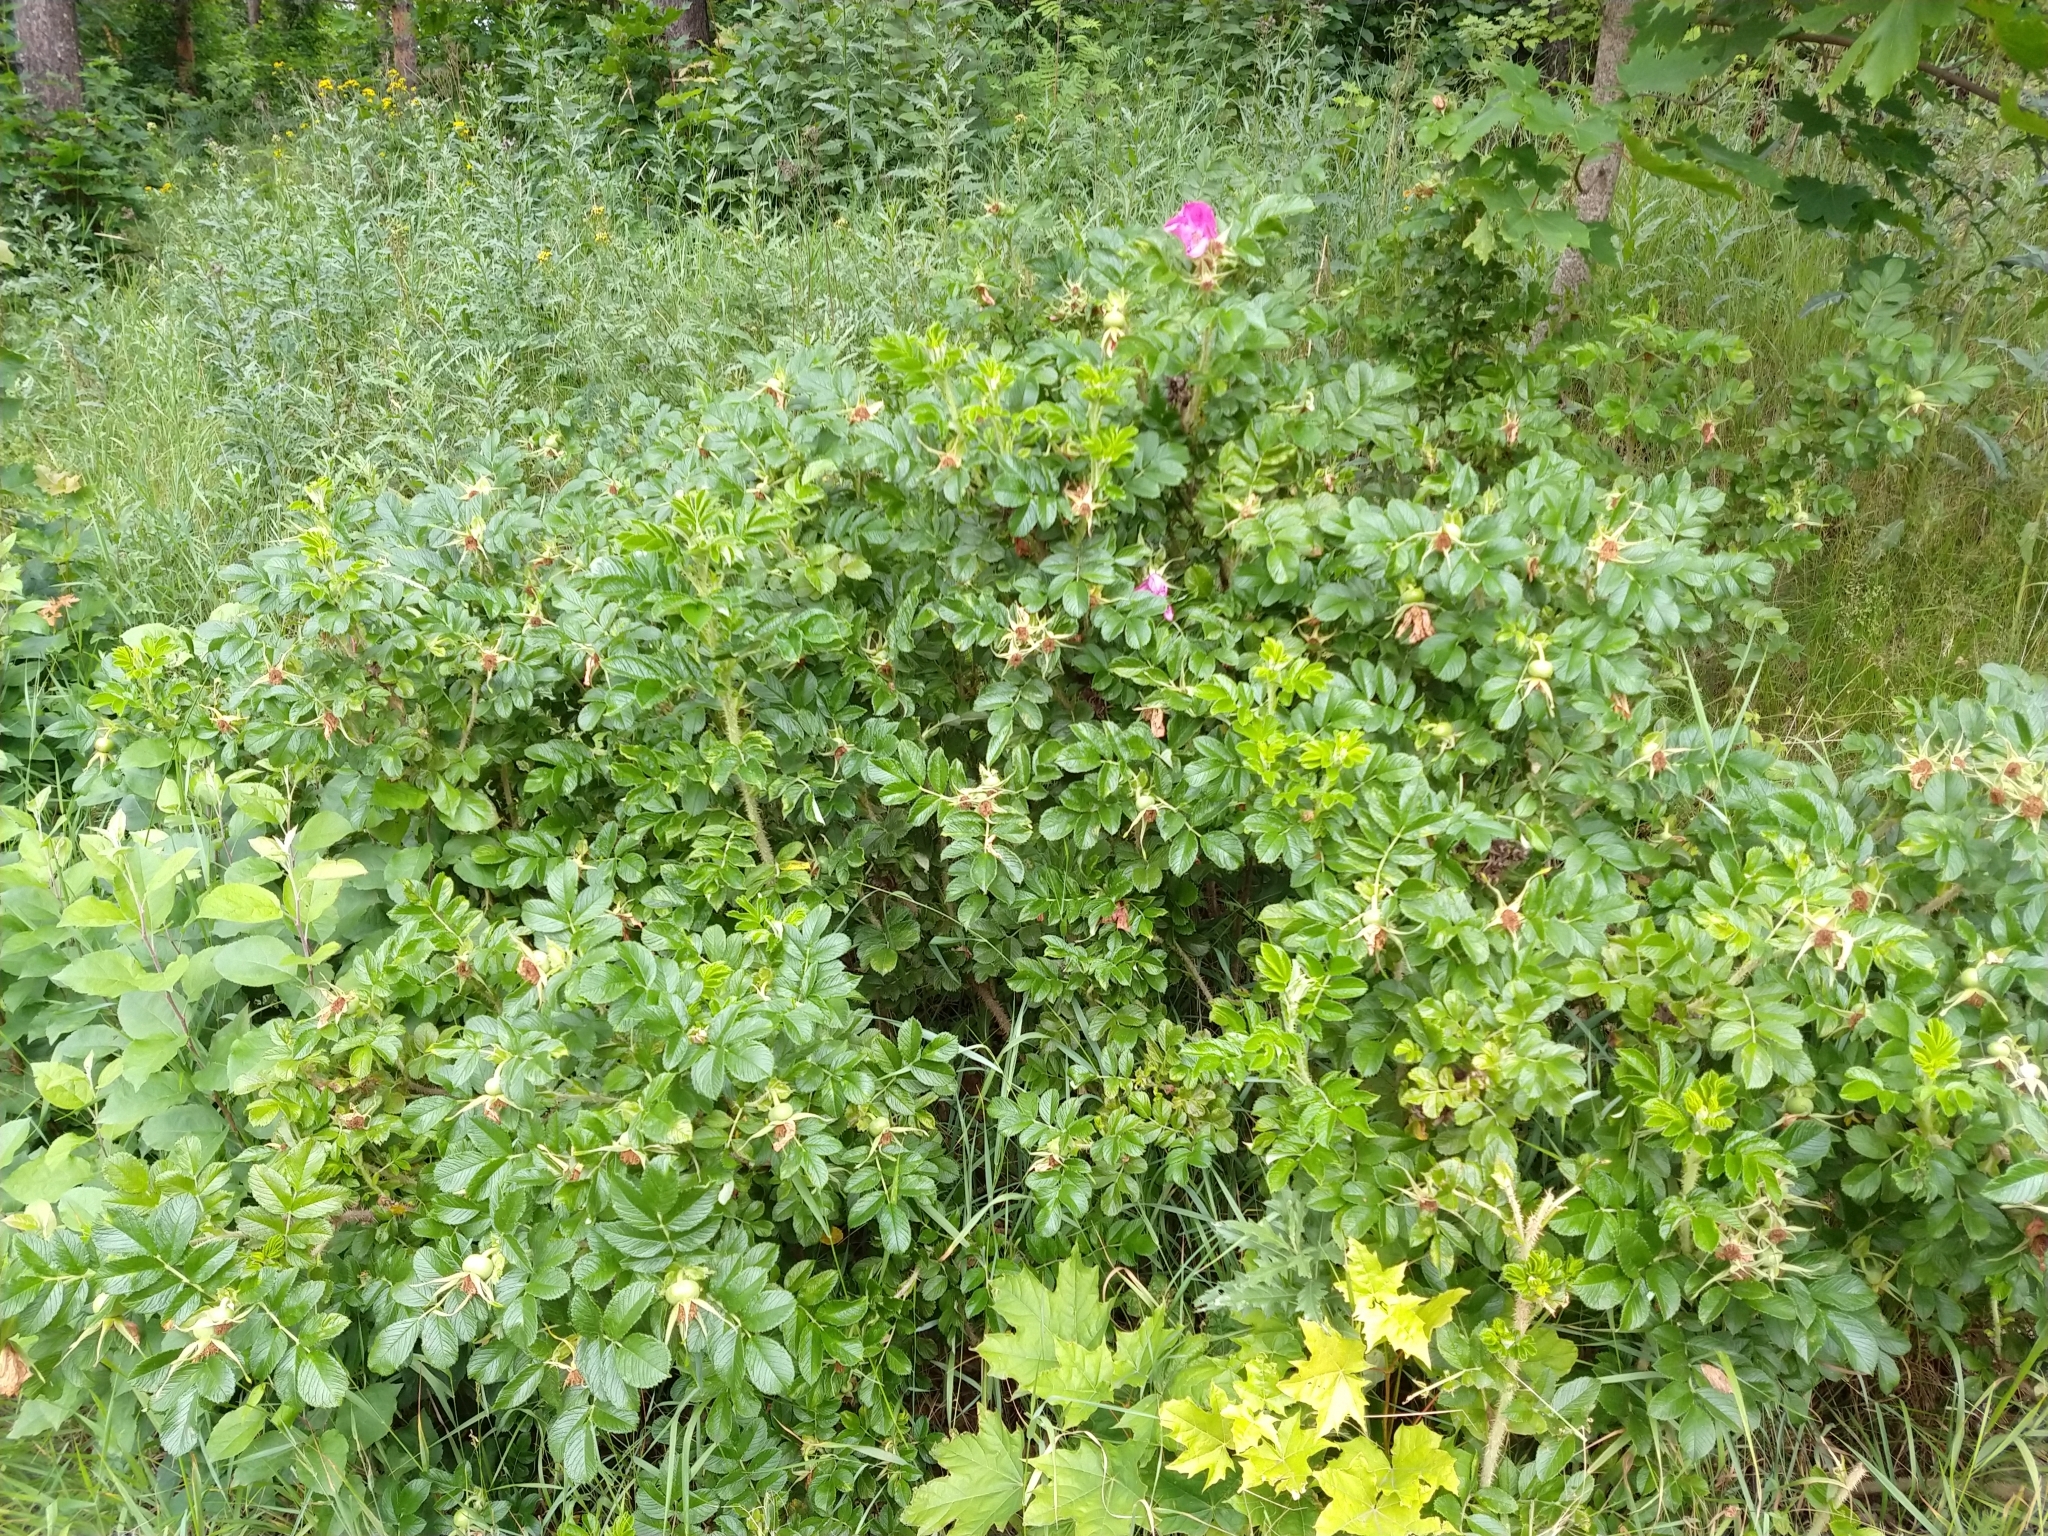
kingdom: Plantae
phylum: Tracheophyta
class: Magnoliopsida
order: Rosales
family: Rosaceae
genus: Rosa
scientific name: Rosa rugosa
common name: Japanese rose
